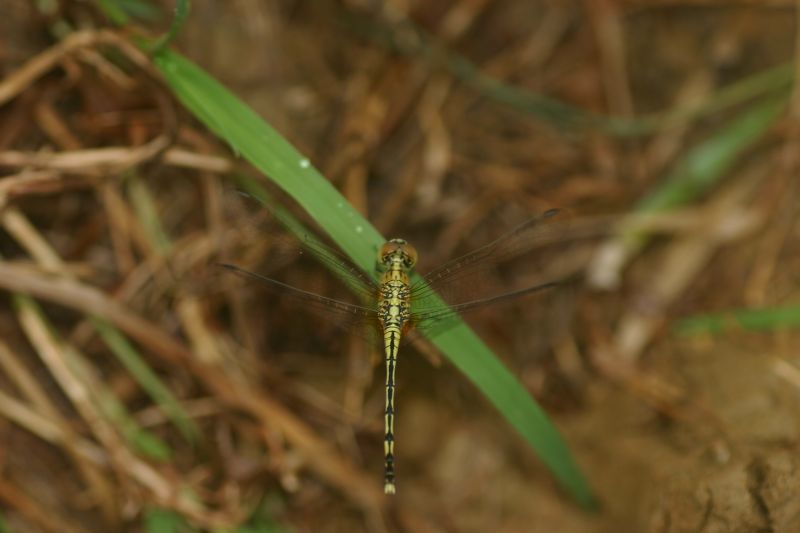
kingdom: Animalia
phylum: Arthropoda
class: Insecta
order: Odonata
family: Libellulidae
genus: Diplacodes
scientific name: Diplacodes trivialis
